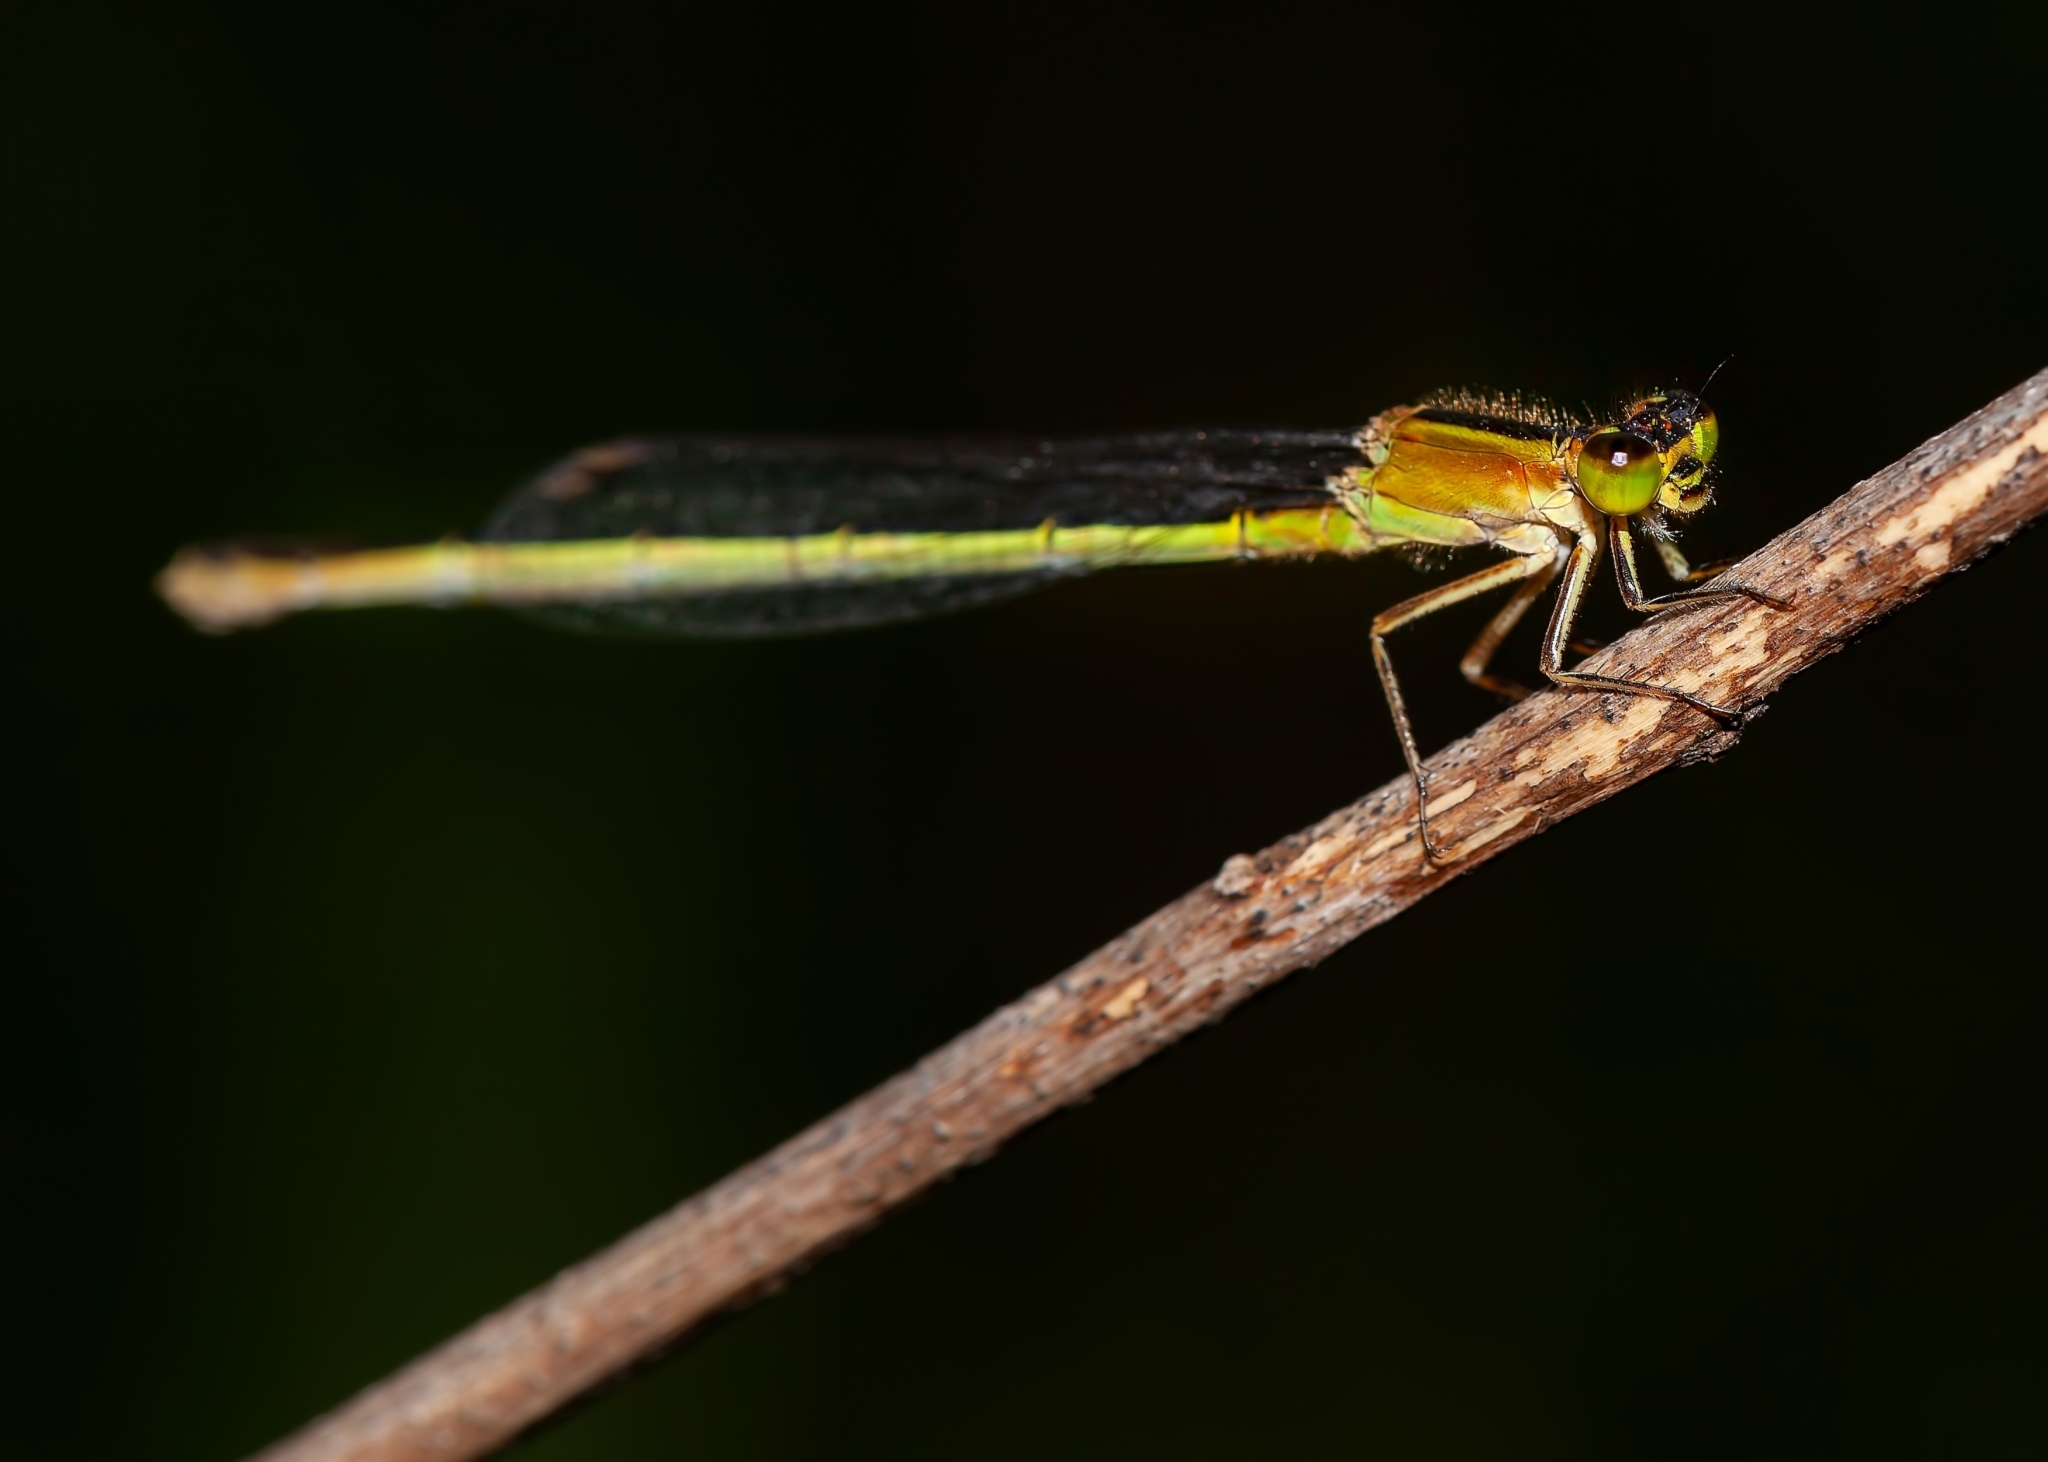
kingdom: Animalia
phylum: Arthropoda
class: Insecta
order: Odonata
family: Coenagrionidae
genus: Ischnura
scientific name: Ischnura hastata
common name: Citrine forktail
